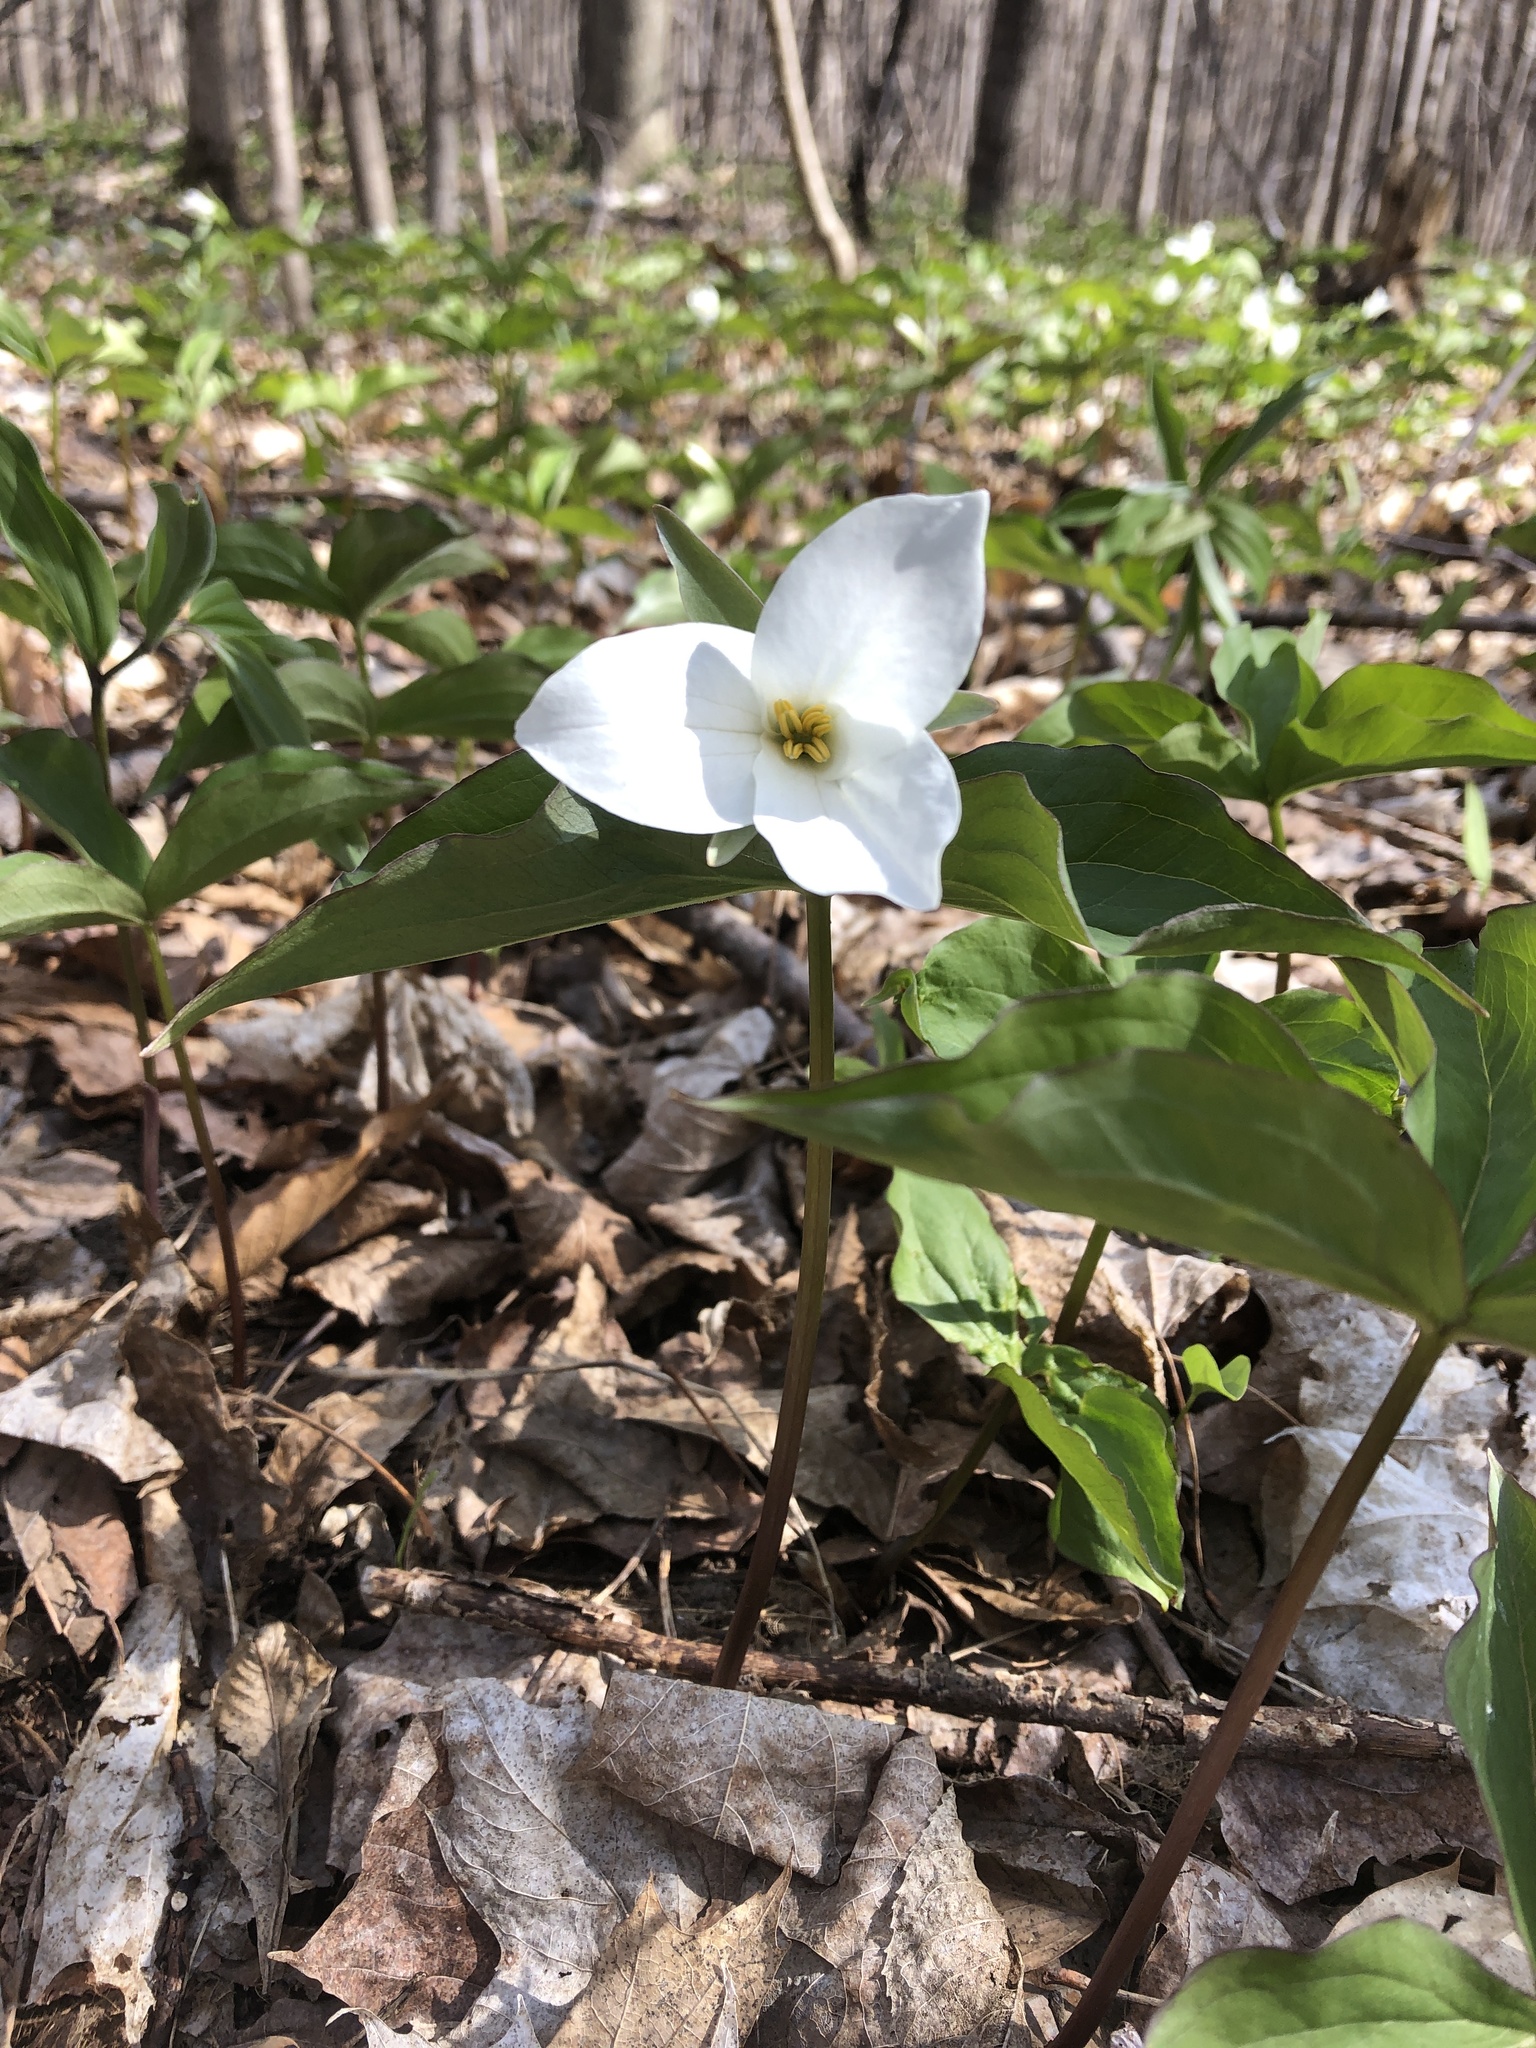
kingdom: Plantae
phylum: Tracheophyta
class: Liliopsida
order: Liliales
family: Melanthiaceae
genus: Trillium
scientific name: Trillium grandiflorum
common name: Great white trillium
